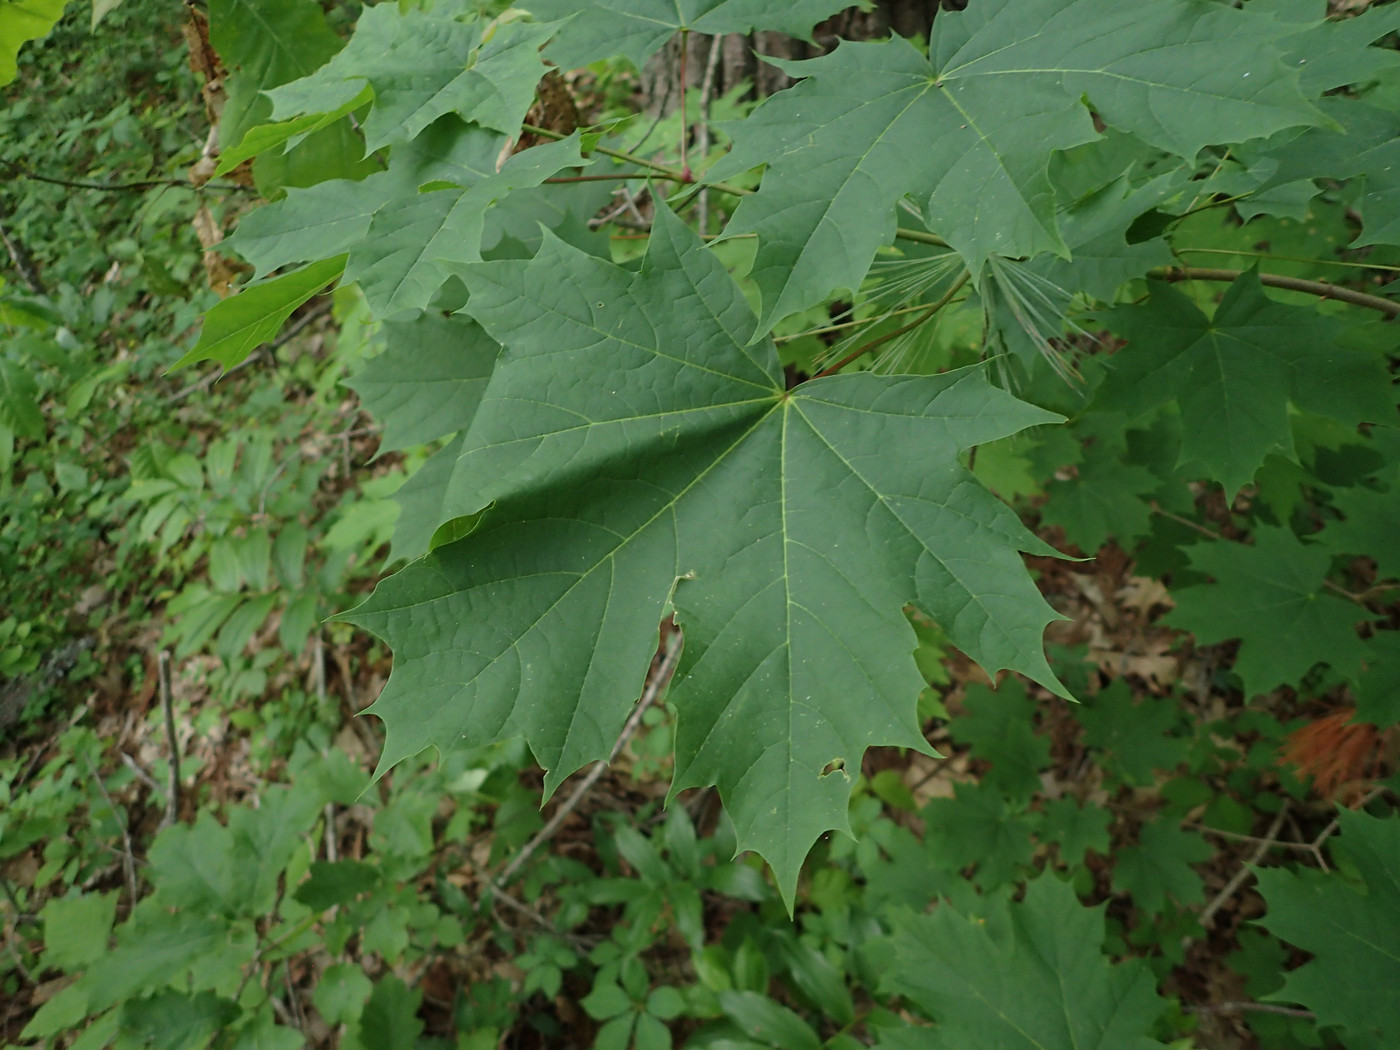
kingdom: Plantae
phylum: Tracheophyta
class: Magnoliopsida
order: Sapindales
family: Sapindaceae
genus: Acer
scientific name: Acer platanoides
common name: Norway maple
